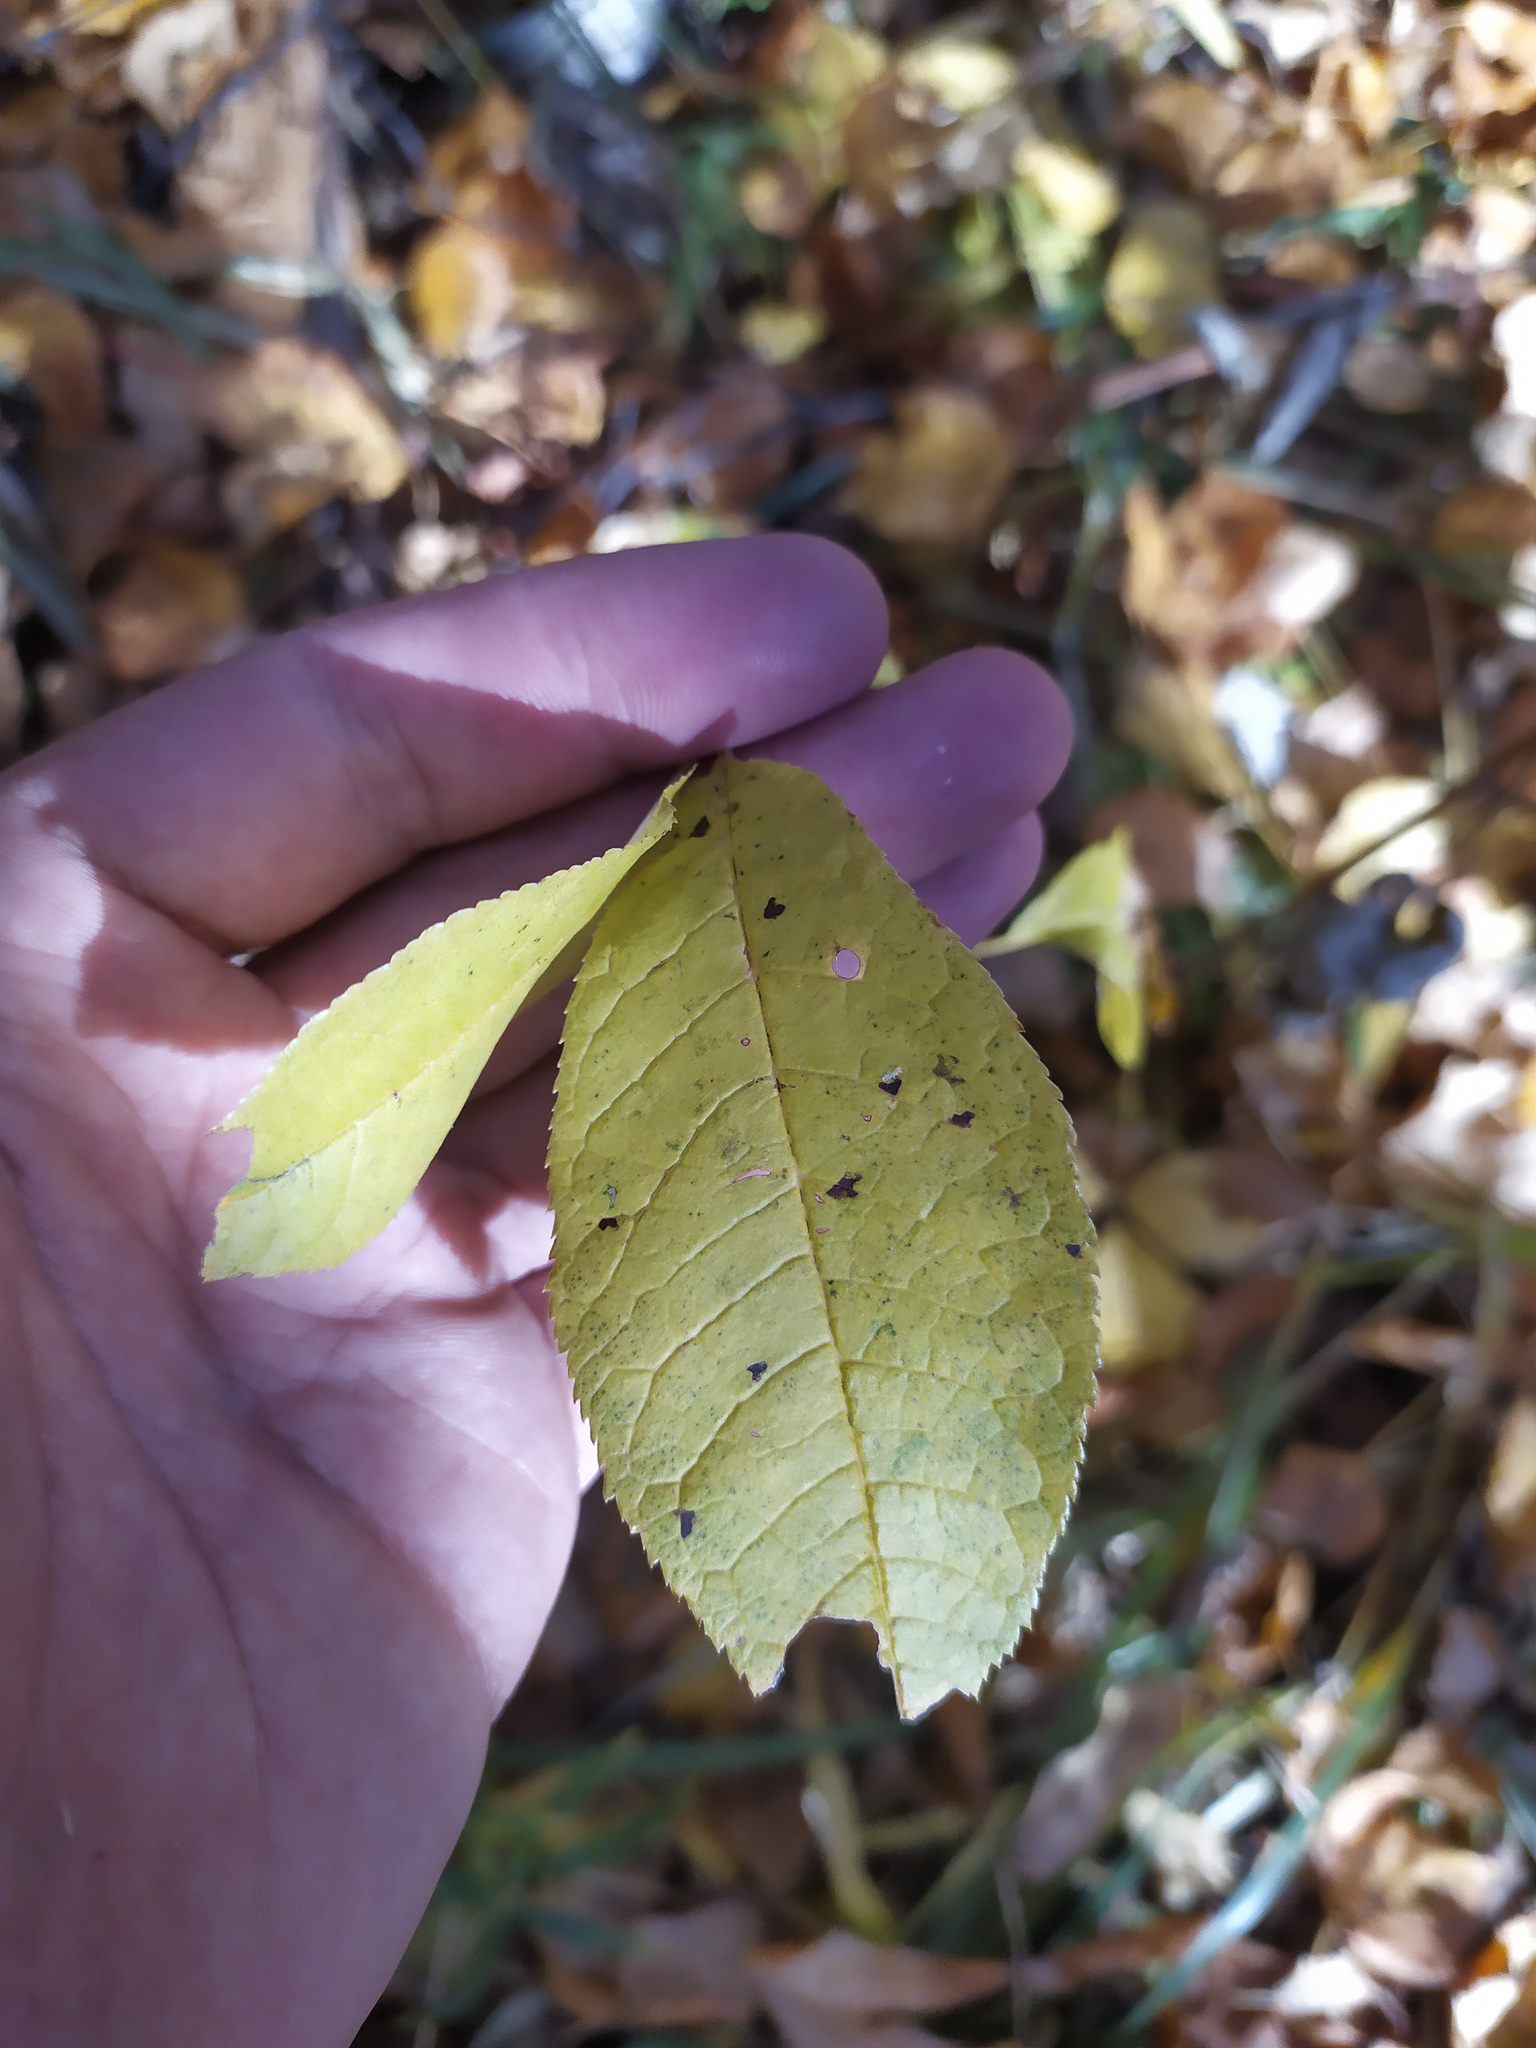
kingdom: Plantae
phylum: Tracheophyta
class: Magnoliopsida
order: Rosales
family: Rosaceae
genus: Prunus
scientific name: Prunus padus
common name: Bird cherry
